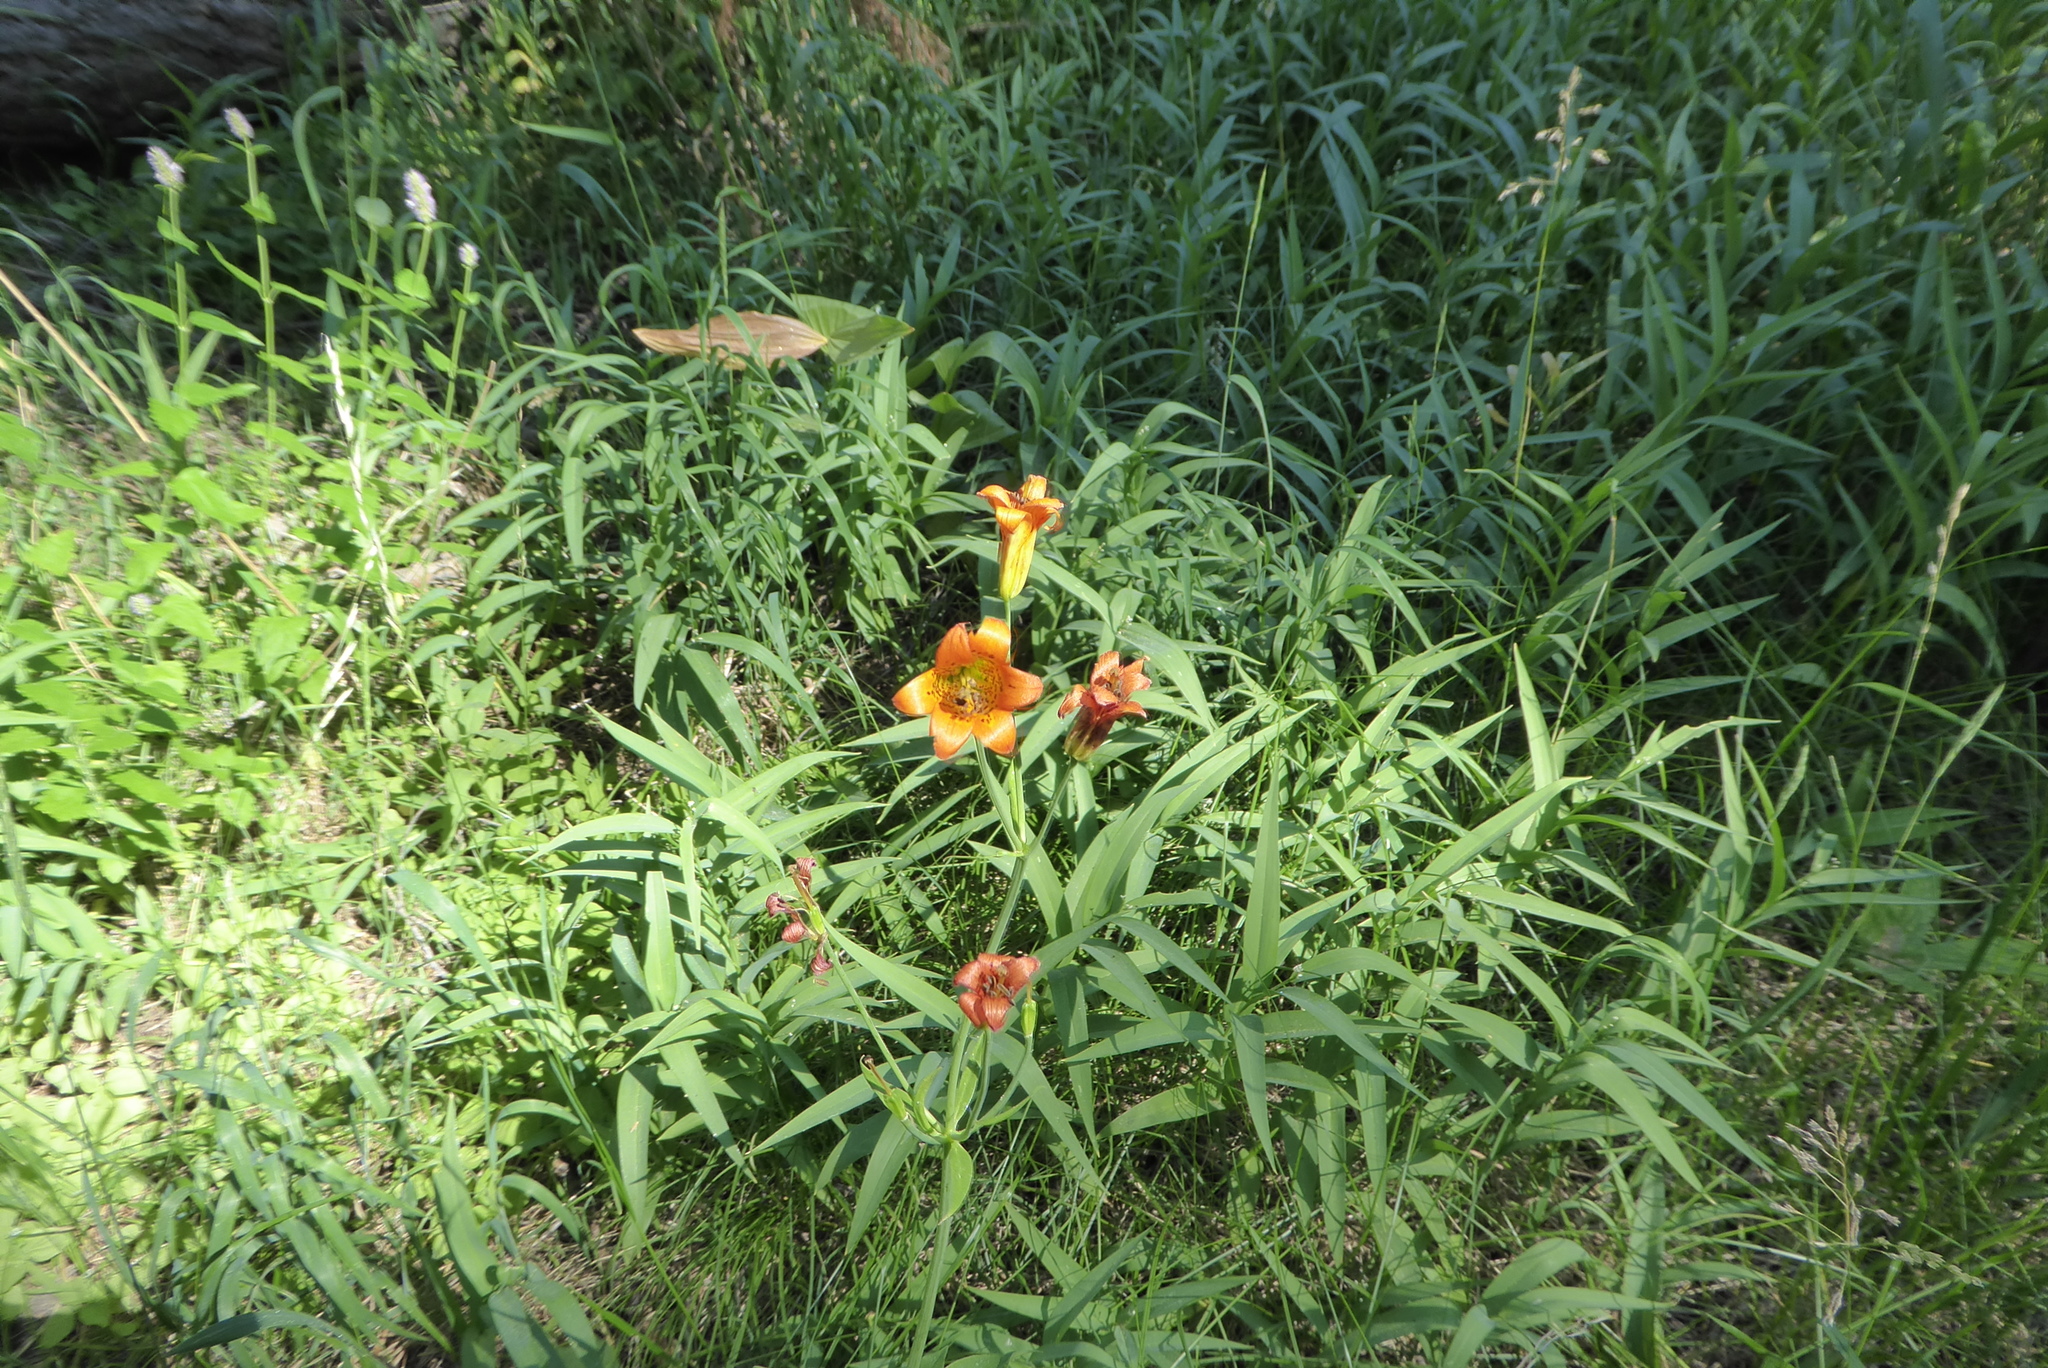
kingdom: Plantae
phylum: Tracheophyta
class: Liliopsida
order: Liliales
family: Liliaceae
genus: Lilium
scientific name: Lilium parvum
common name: Alpine lily
